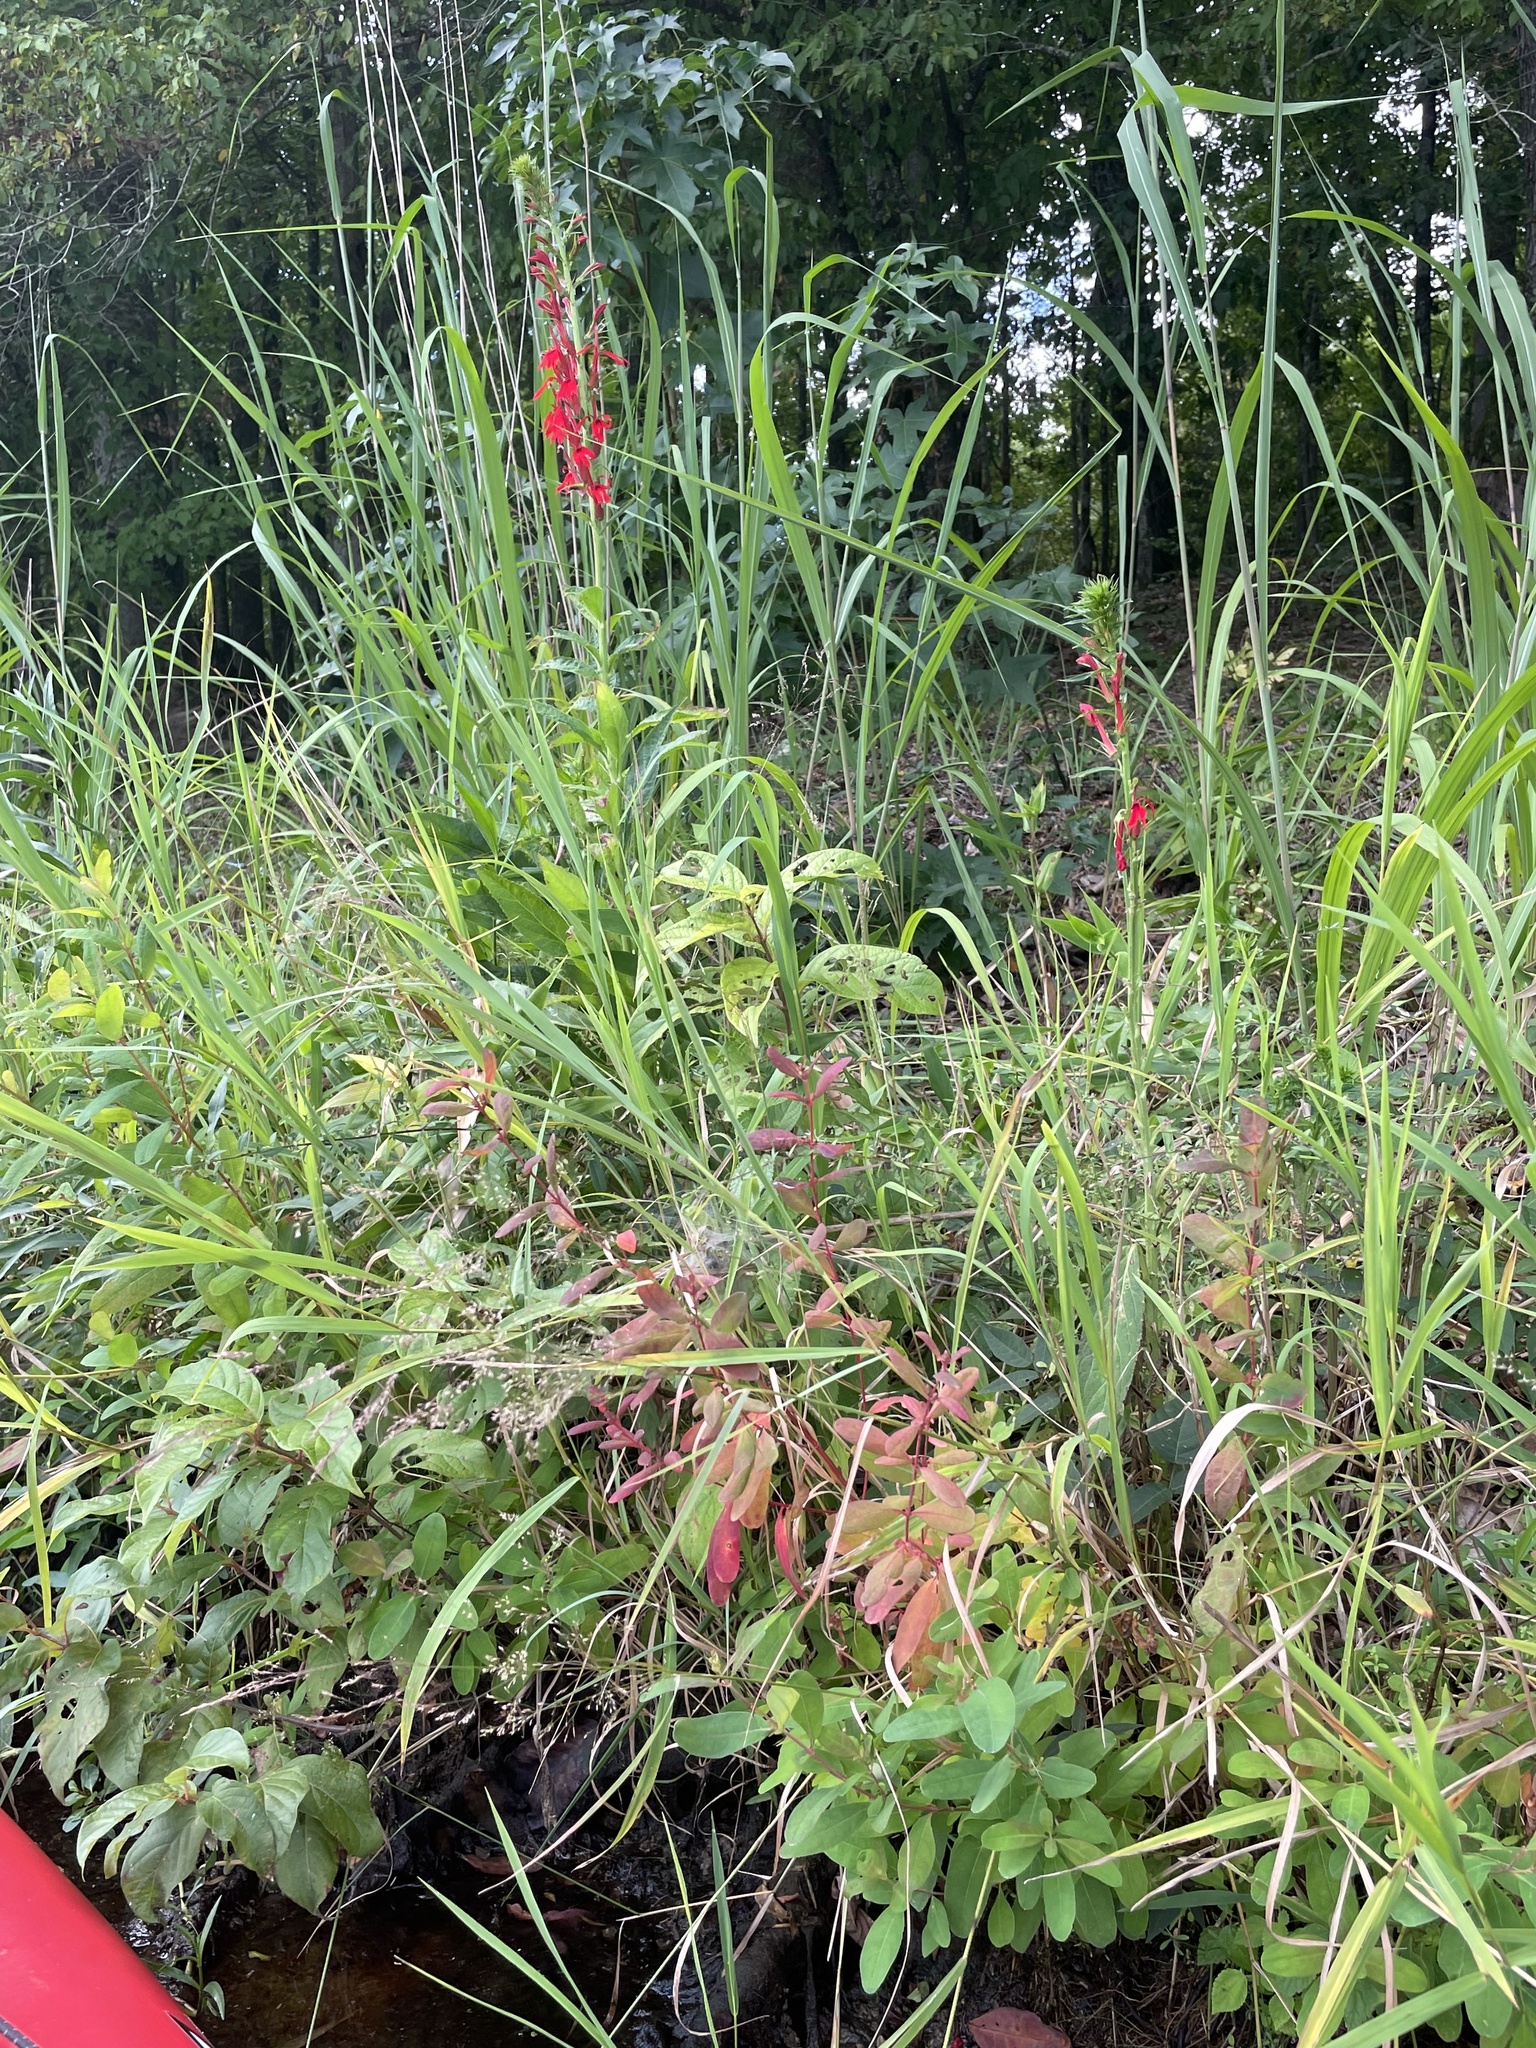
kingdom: Plantae
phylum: Tracheophyta
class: Magnoliopsida
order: Asterales
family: Campanulaceae
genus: Lobelia
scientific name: Lobelia cardinalis
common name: Cardinal flower
